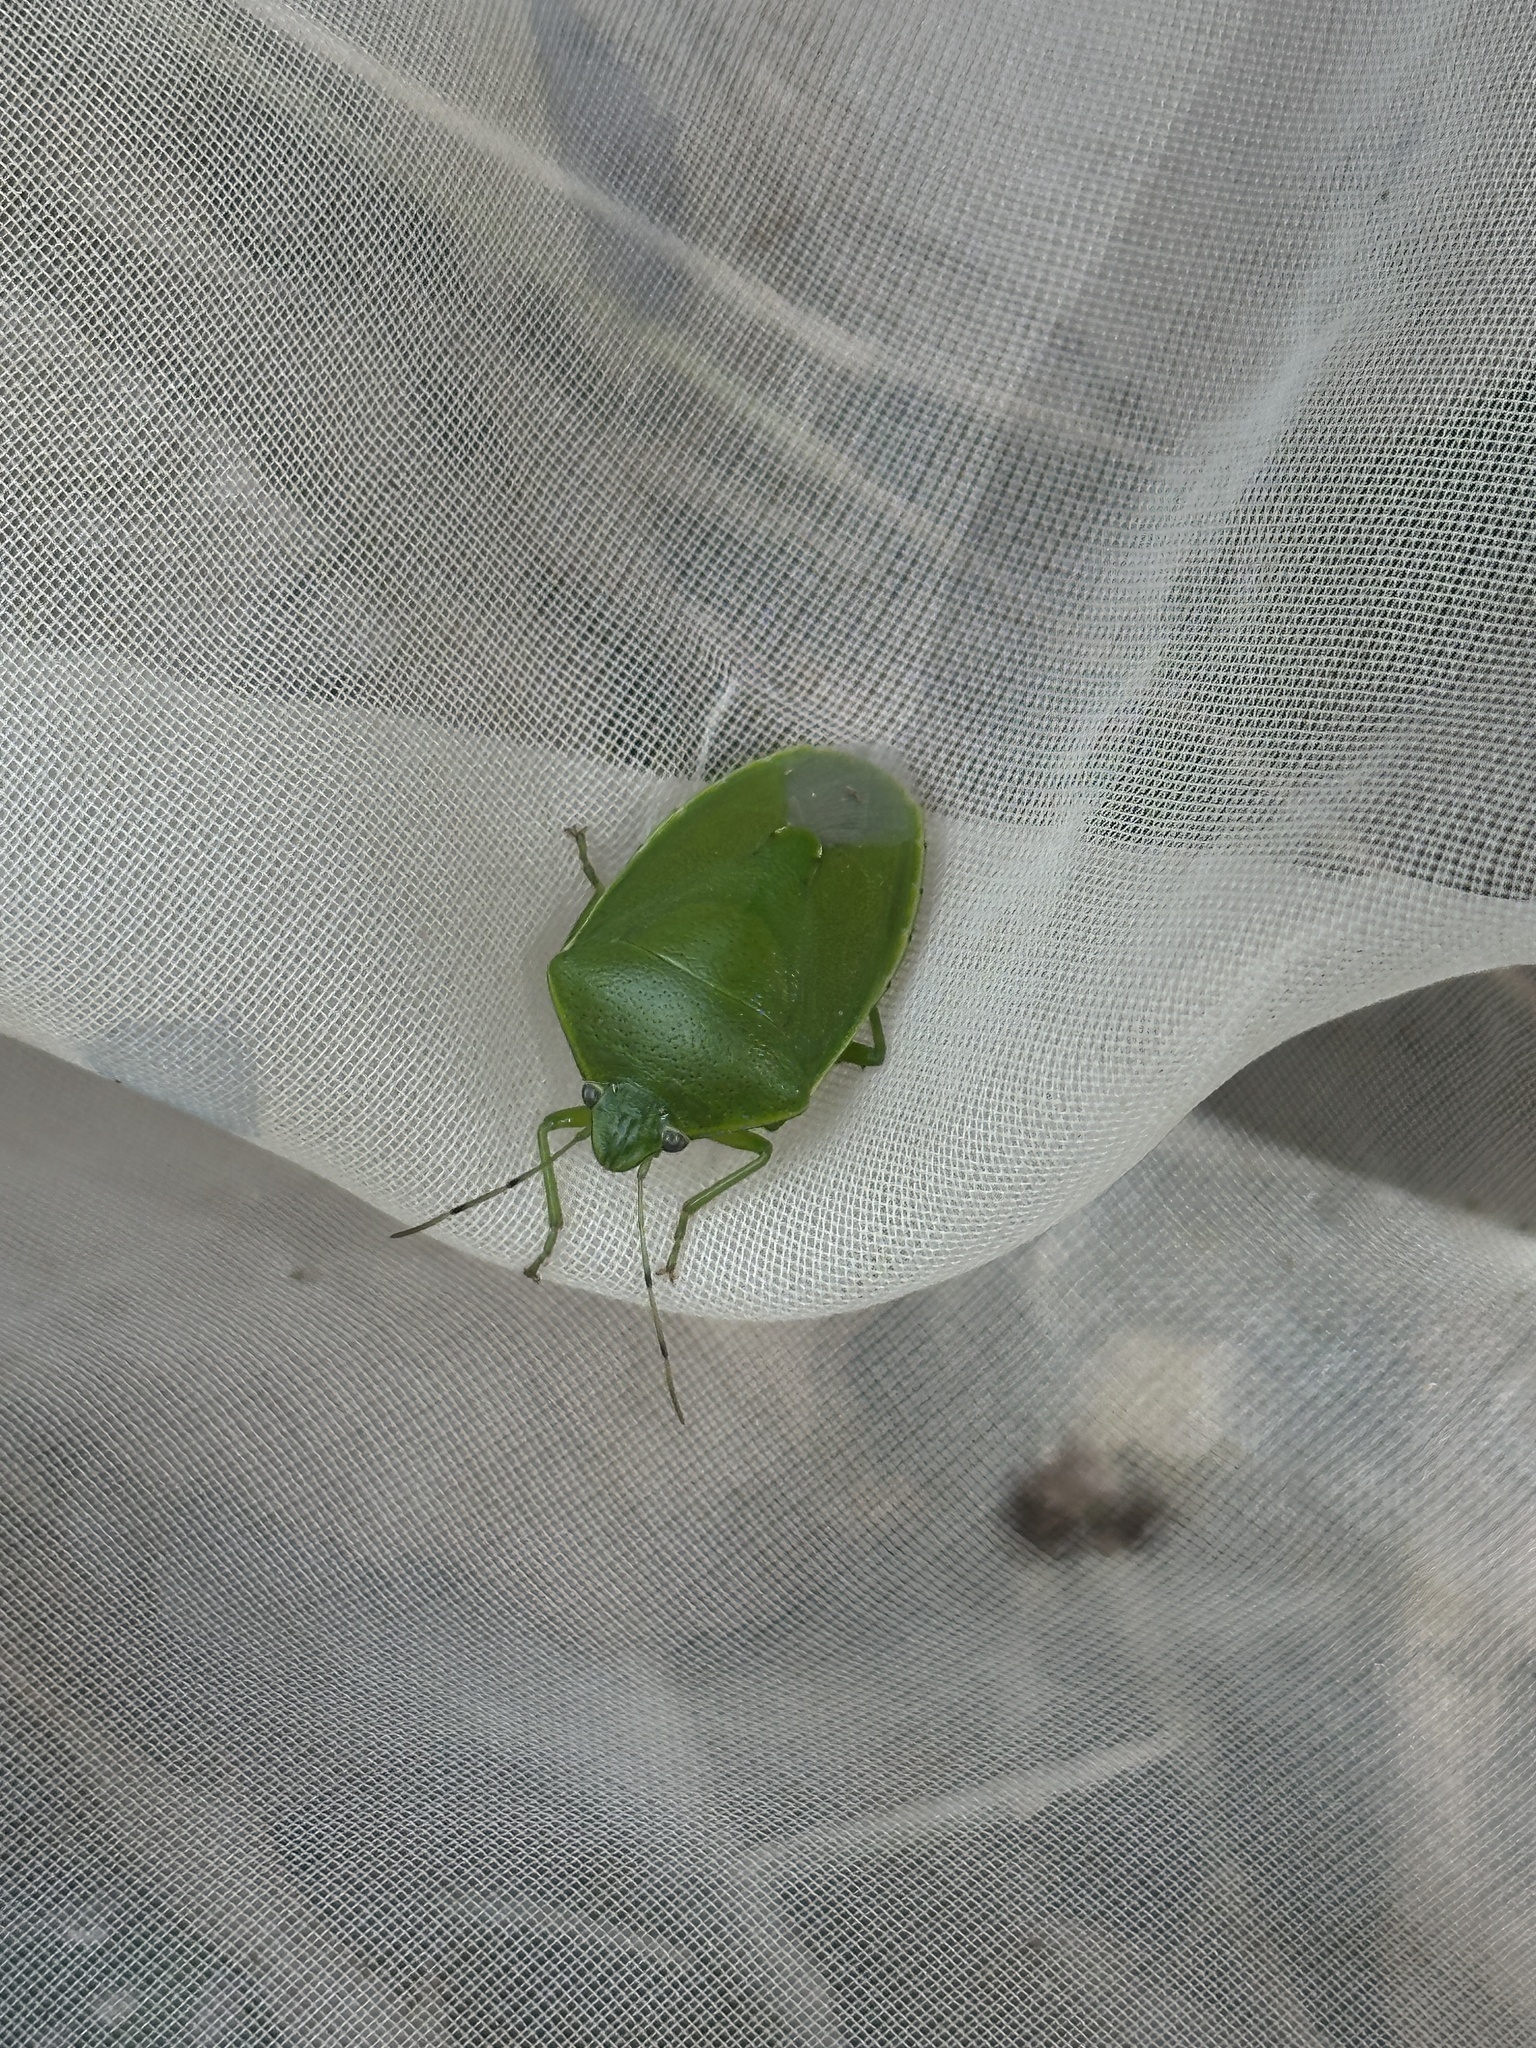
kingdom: Animalia
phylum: Arthropoda
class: Insecta
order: Hemiptera
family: Pentatomidae
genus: Glaucias
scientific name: Glaucias subpunctatus
